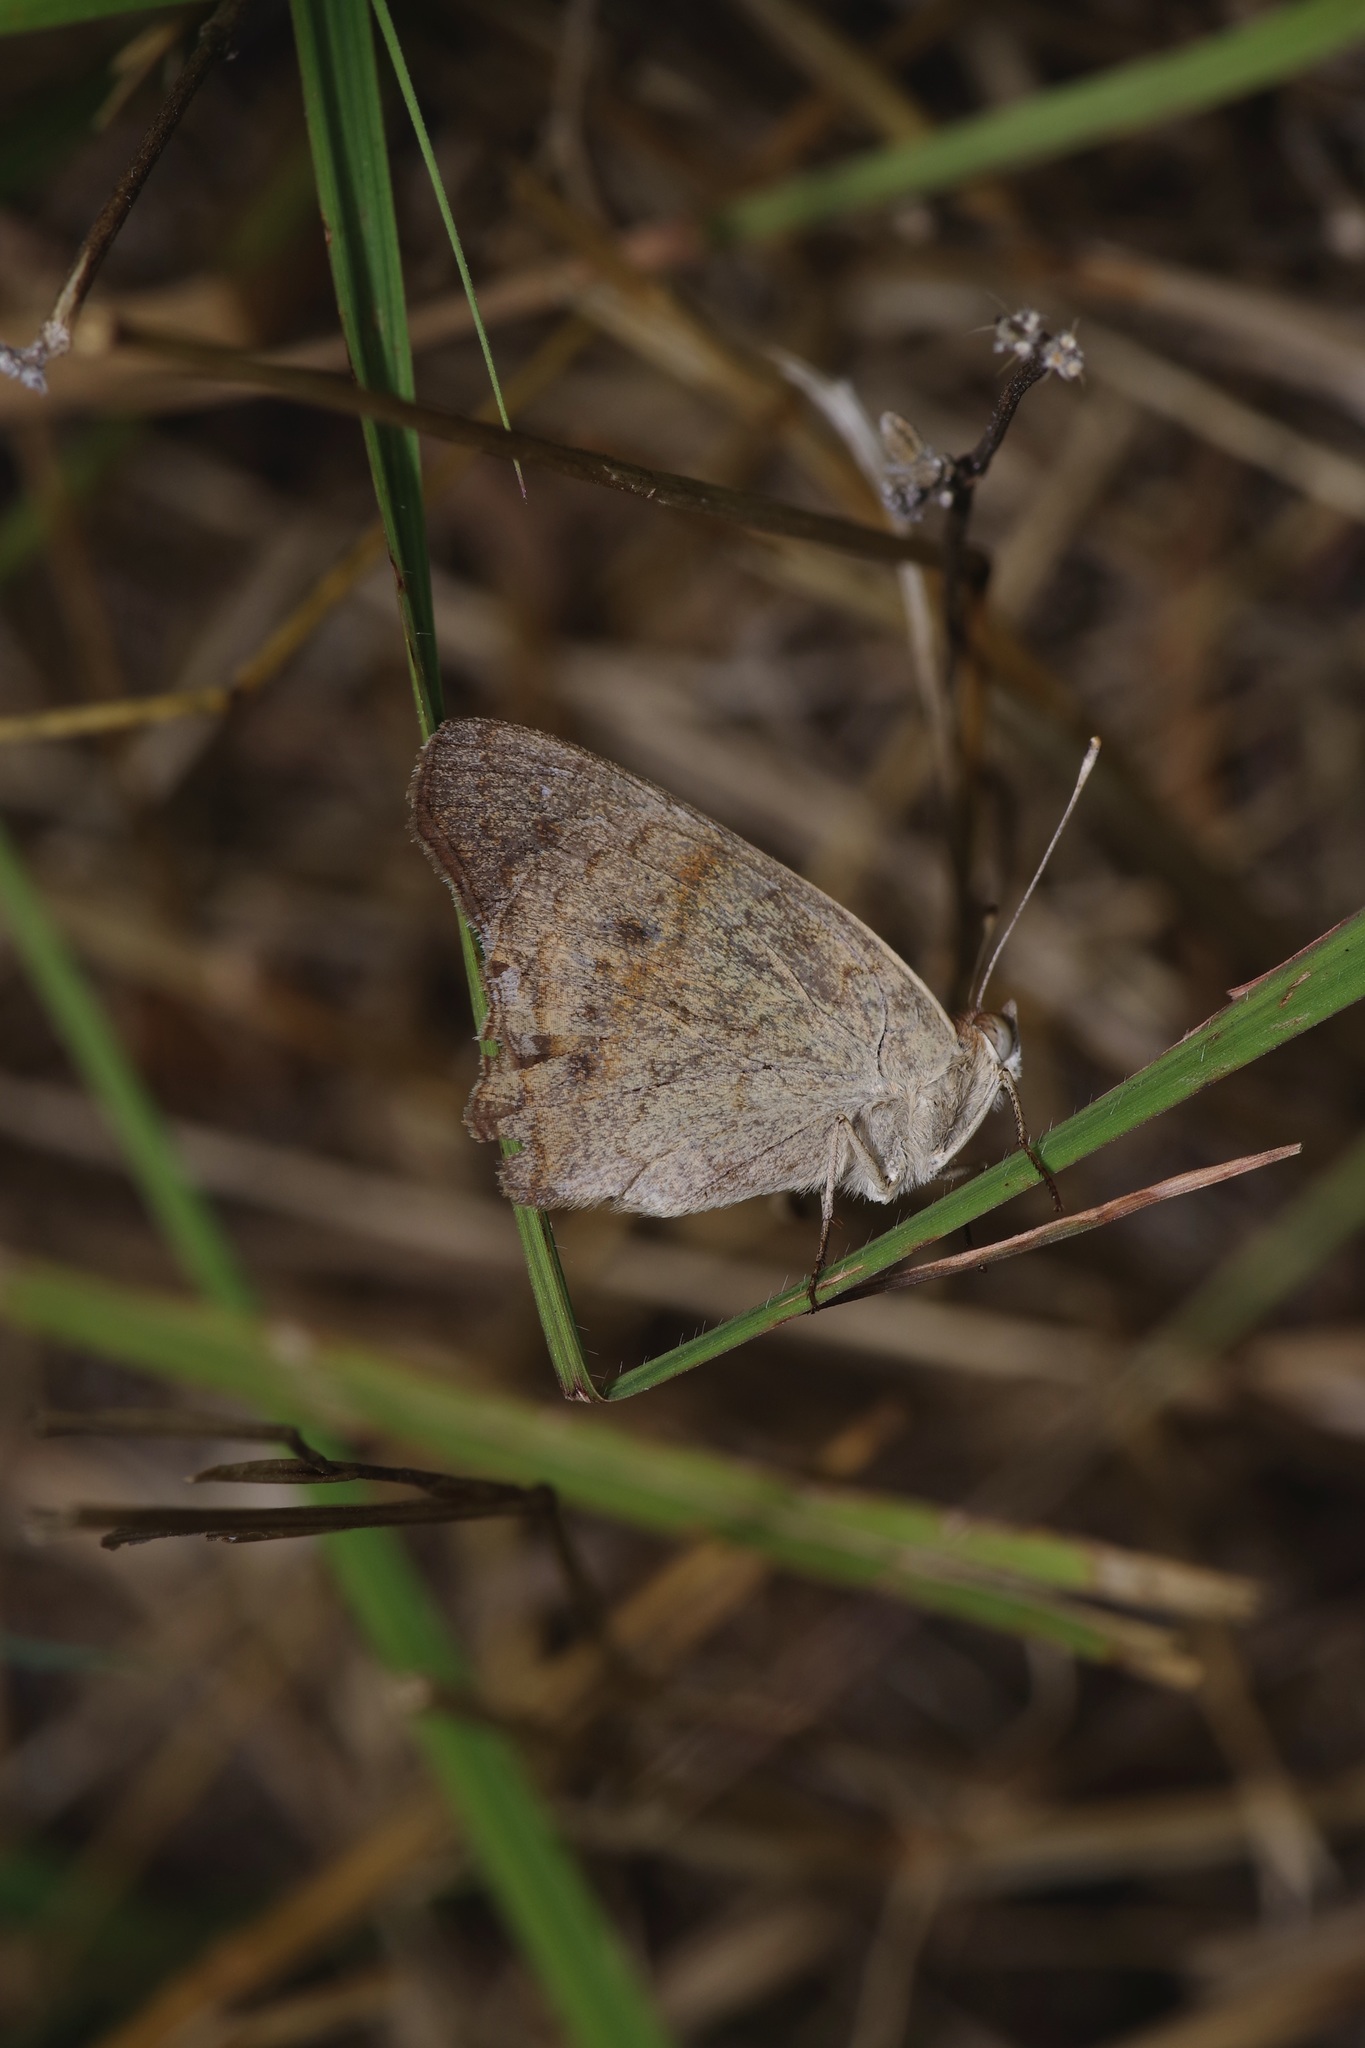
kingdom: Animalia
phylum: Arthropoda
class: Insecta
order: Lepidoptera
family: Nymphalidae
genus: Junonia
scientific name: Junonia coenia
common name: Common buckeye
